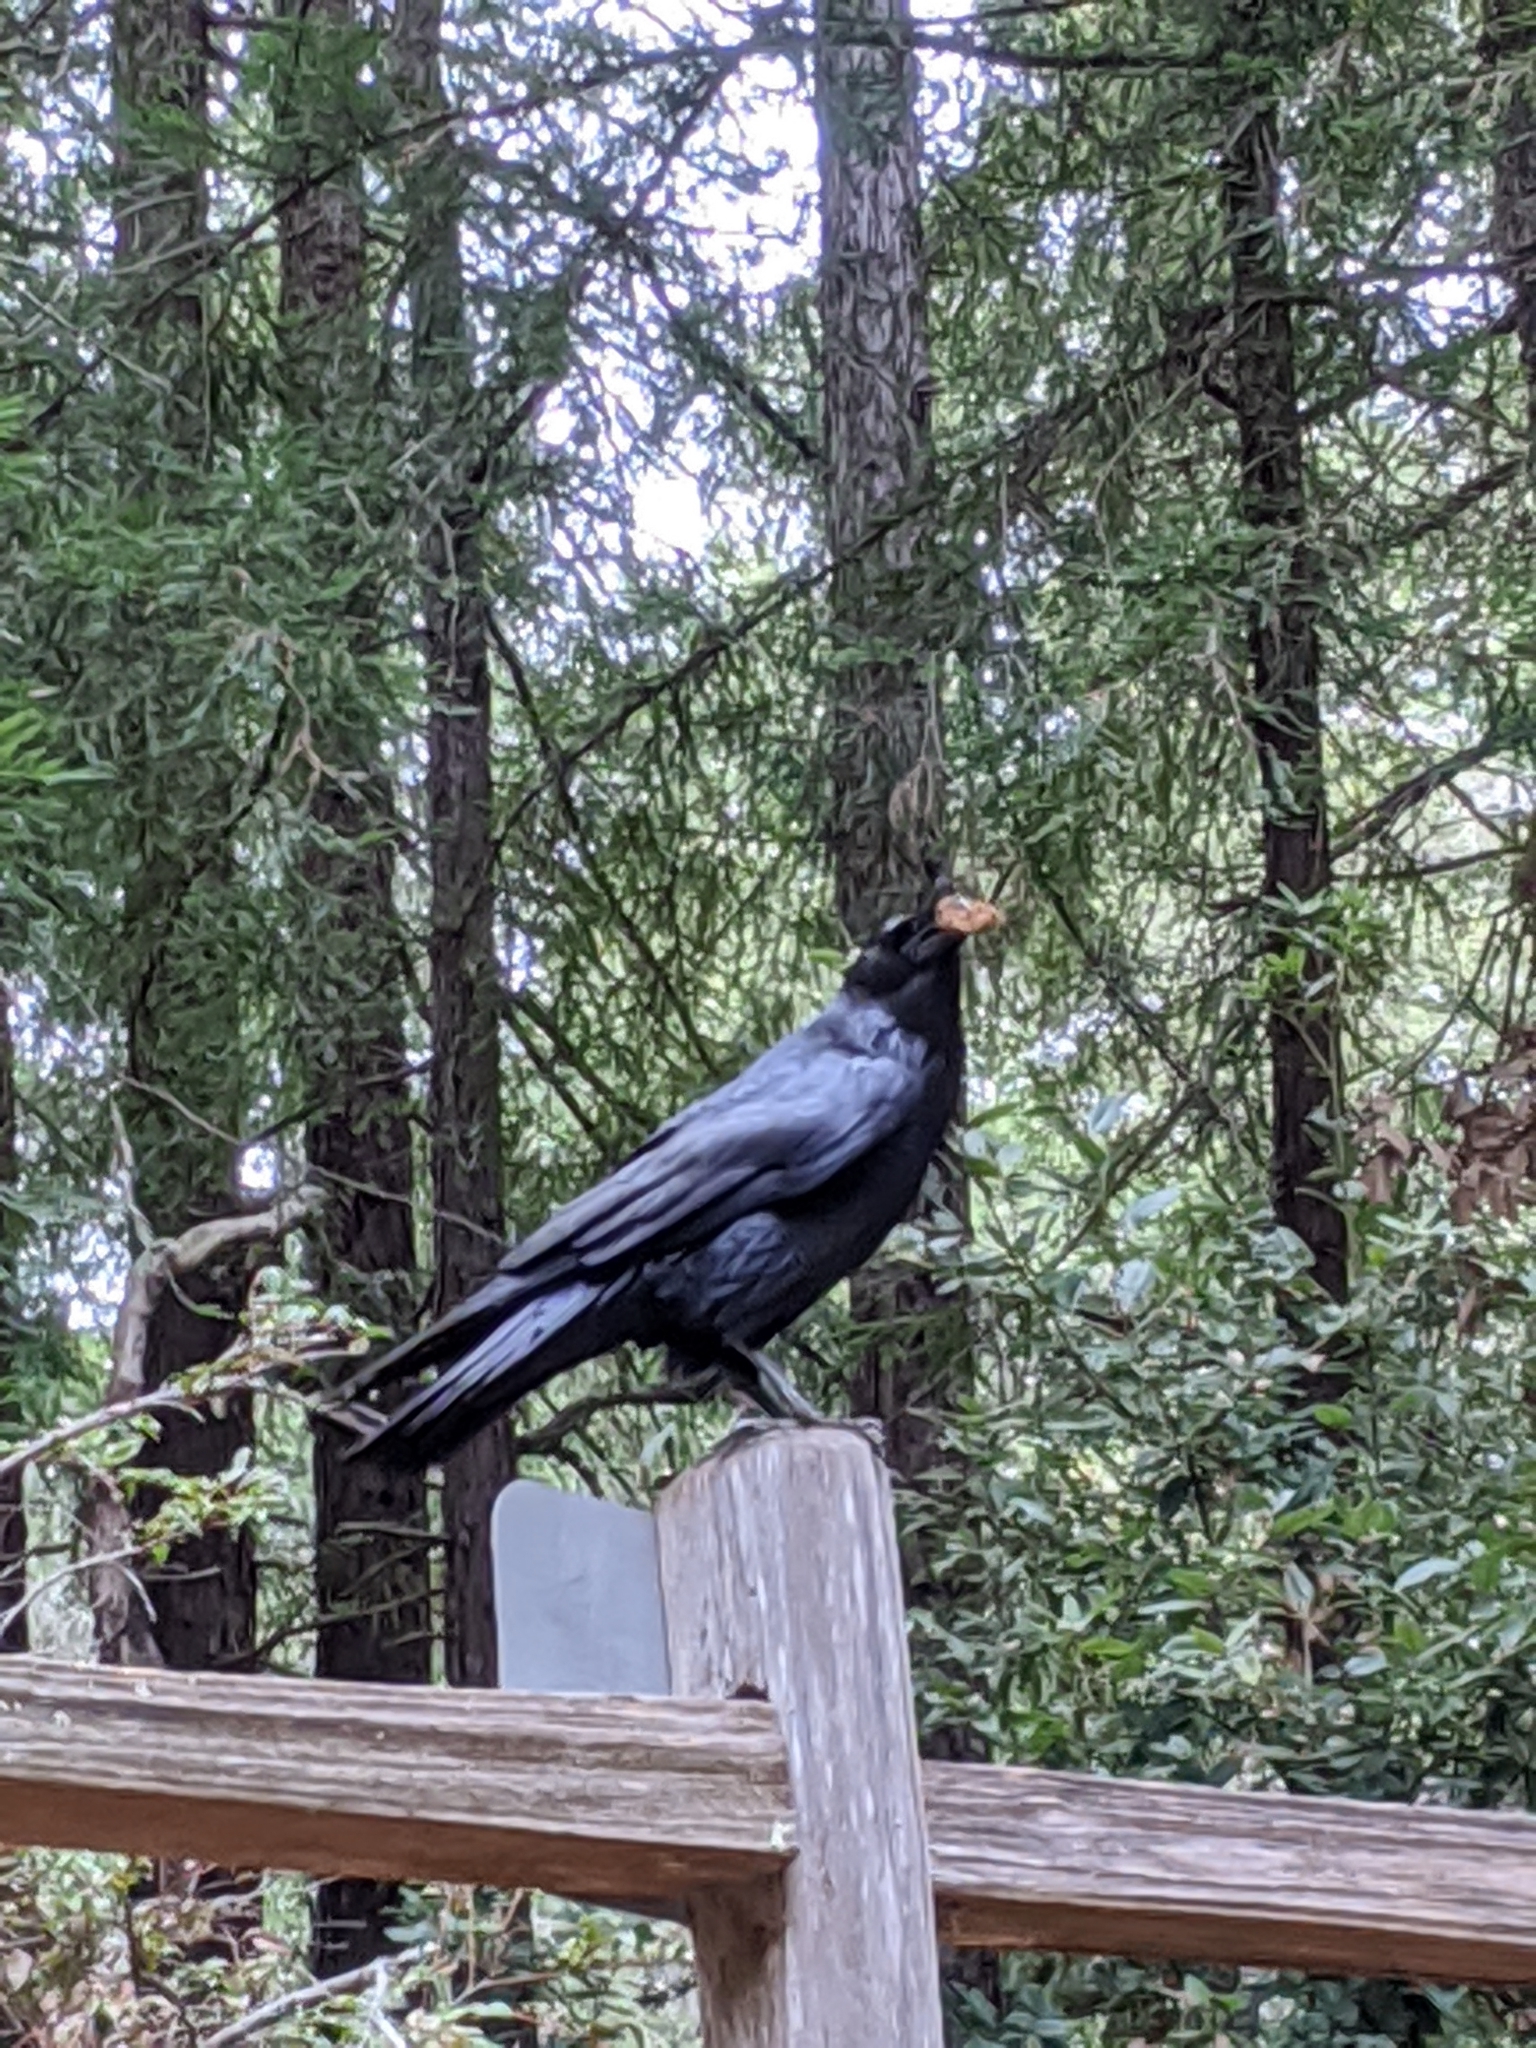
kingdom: Animalia
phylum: Chordata
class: Aves
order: Passeriformes
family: Corvidae
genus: Corvus
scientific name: Corvus corax
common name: Common raven
